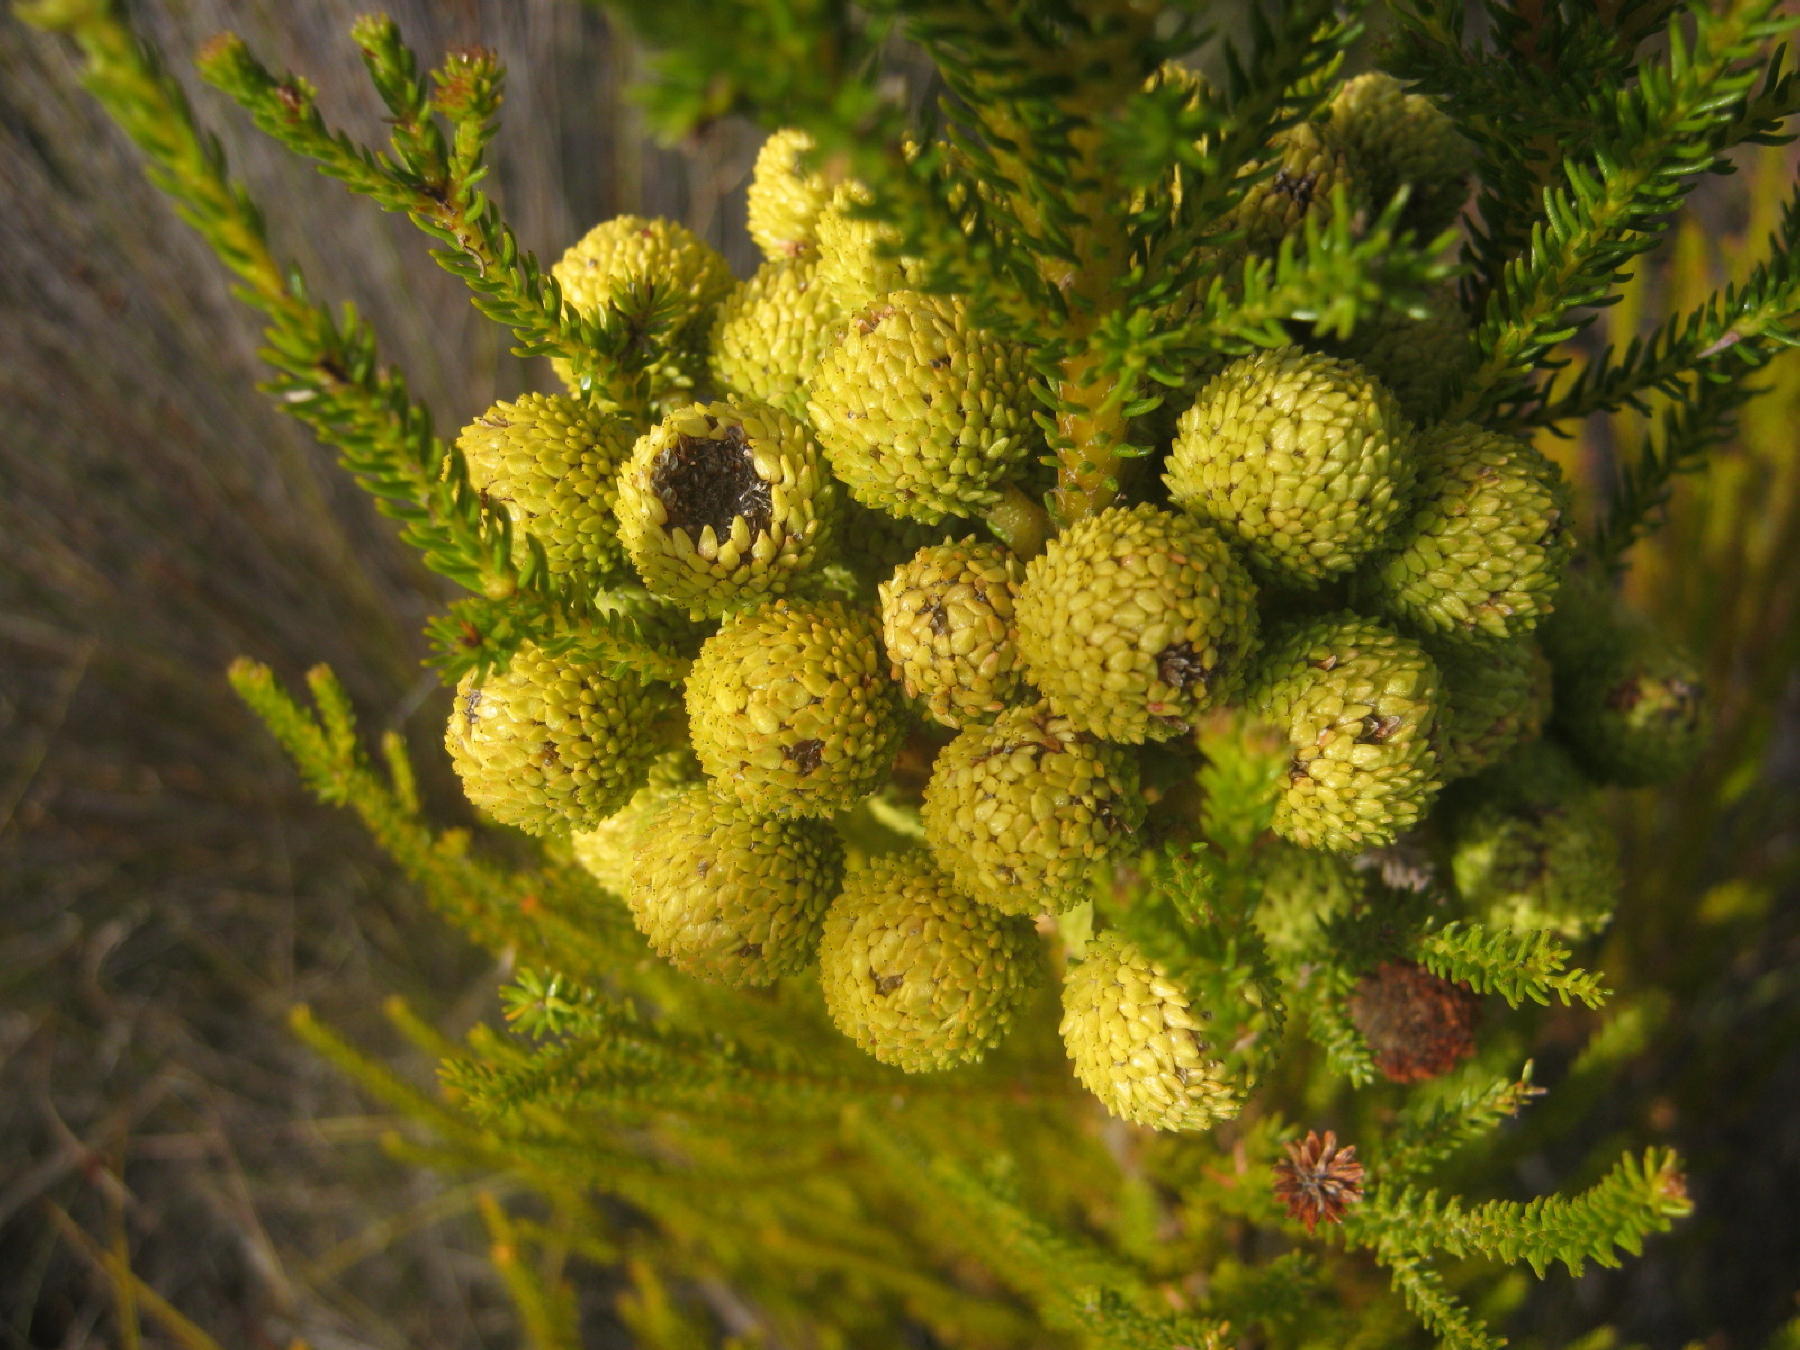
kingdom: Plantae
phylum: Tracheophyta
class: Magnoliopsida
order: Bruniales
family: Bruniaceae
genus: Berzelia
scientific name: Berzelia intermedia
